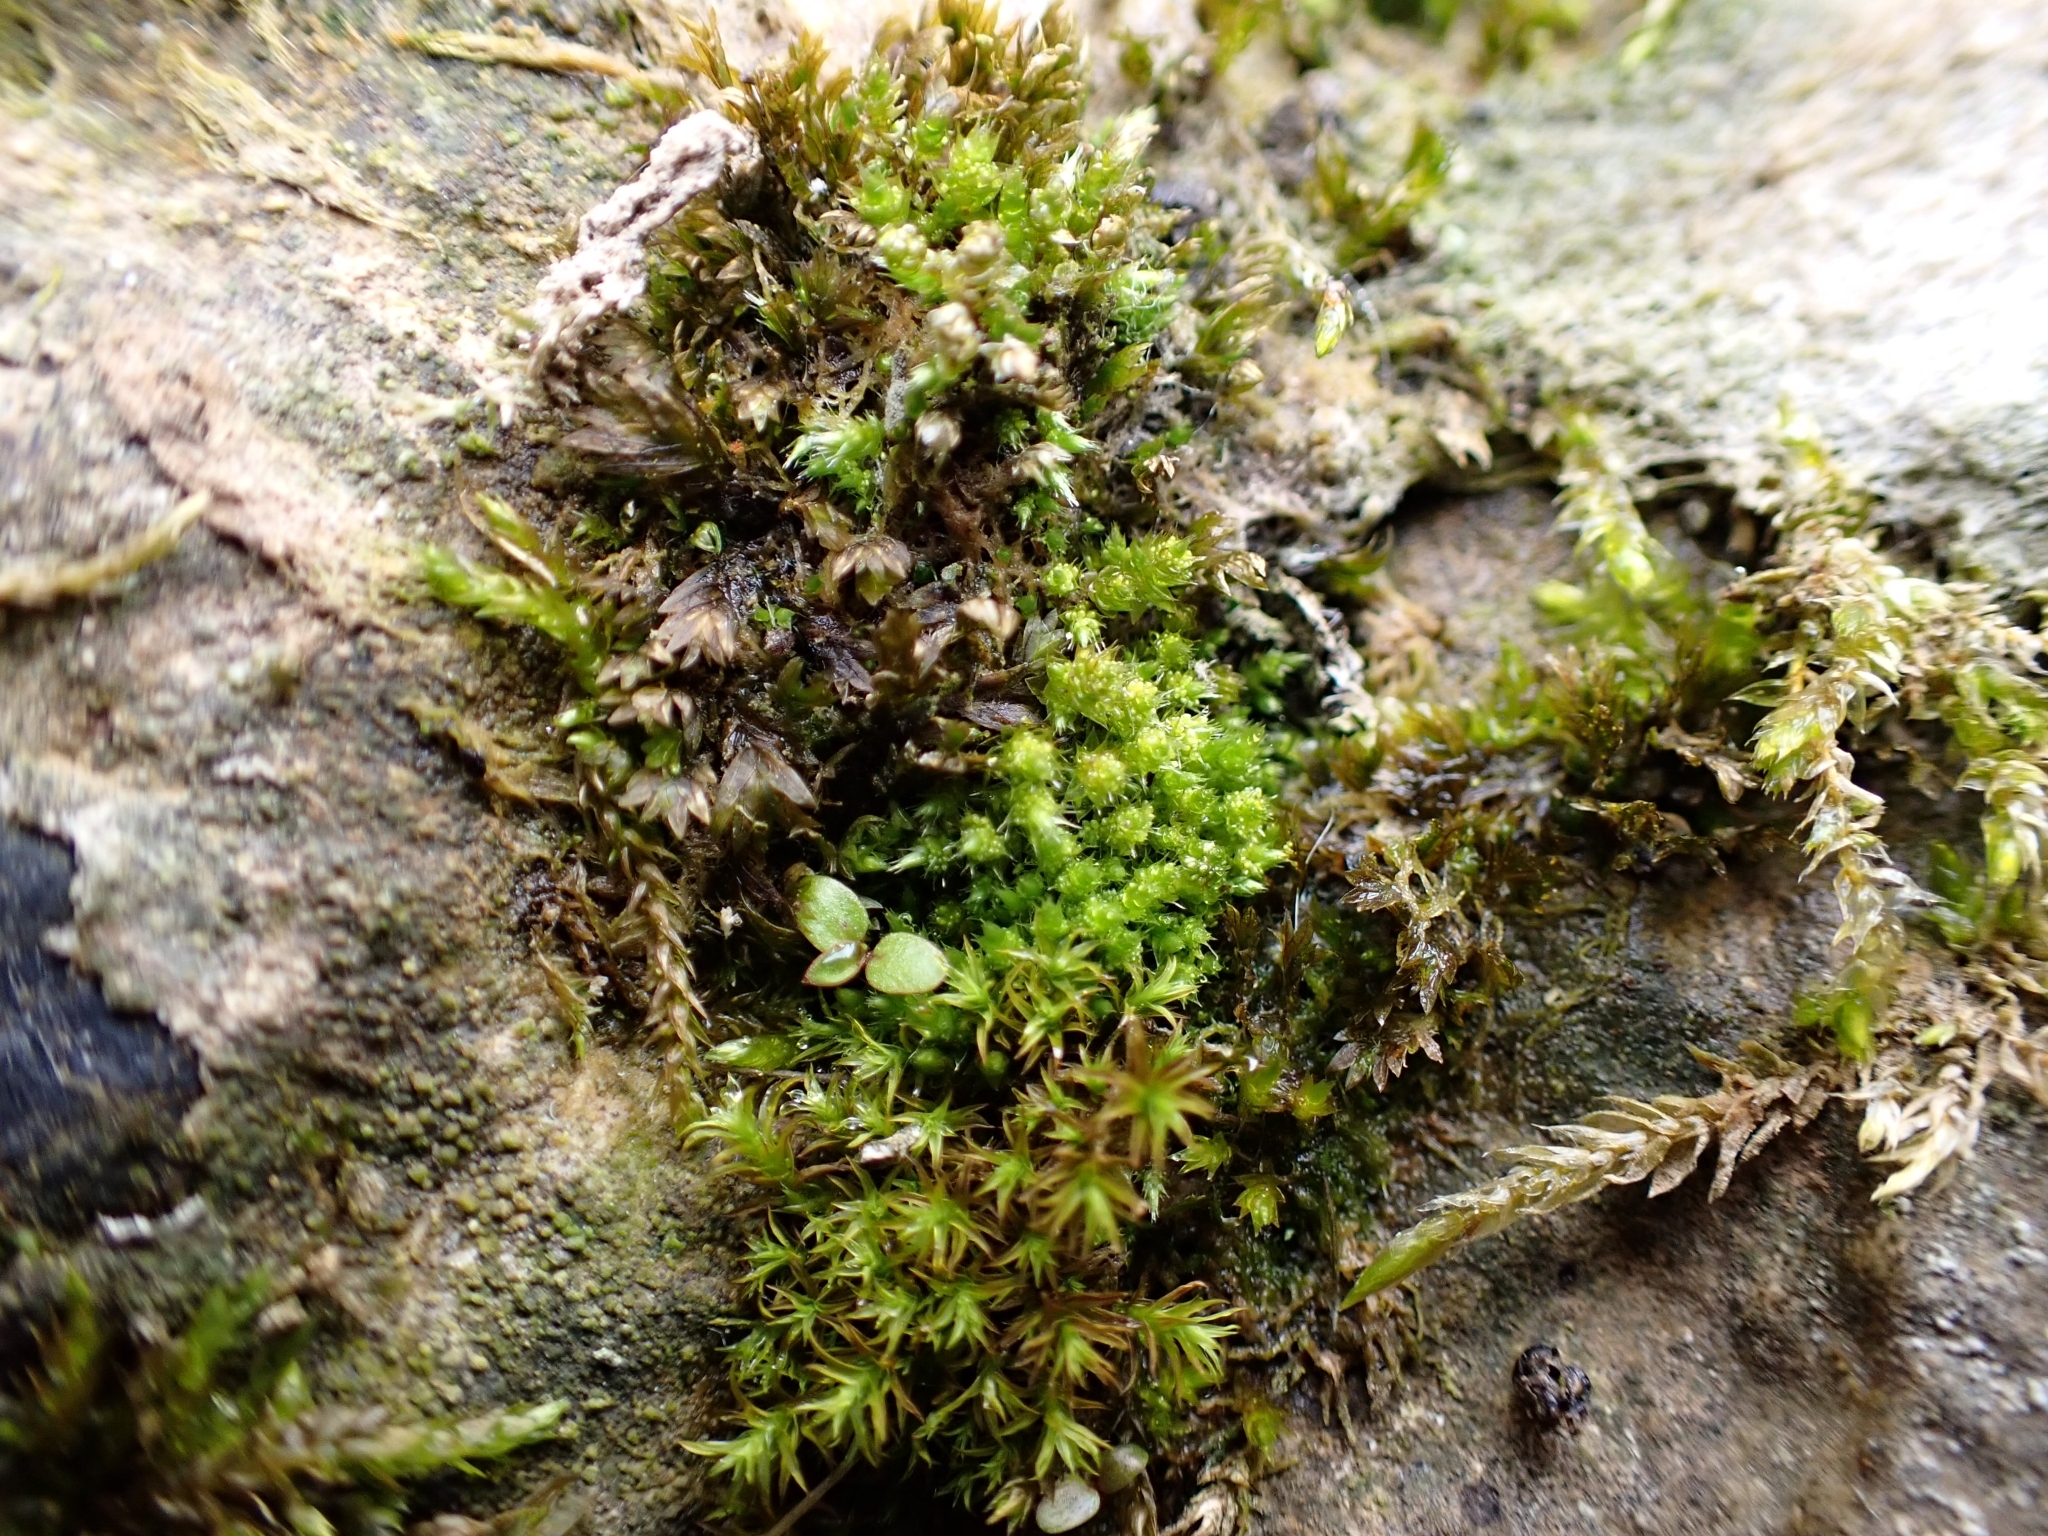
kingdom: Plantae
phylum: Bryophyta
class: Bryopsida
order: Bryales
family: Bryaceae
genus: Gemmabryum
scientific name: Gemmabryum dichotomum
